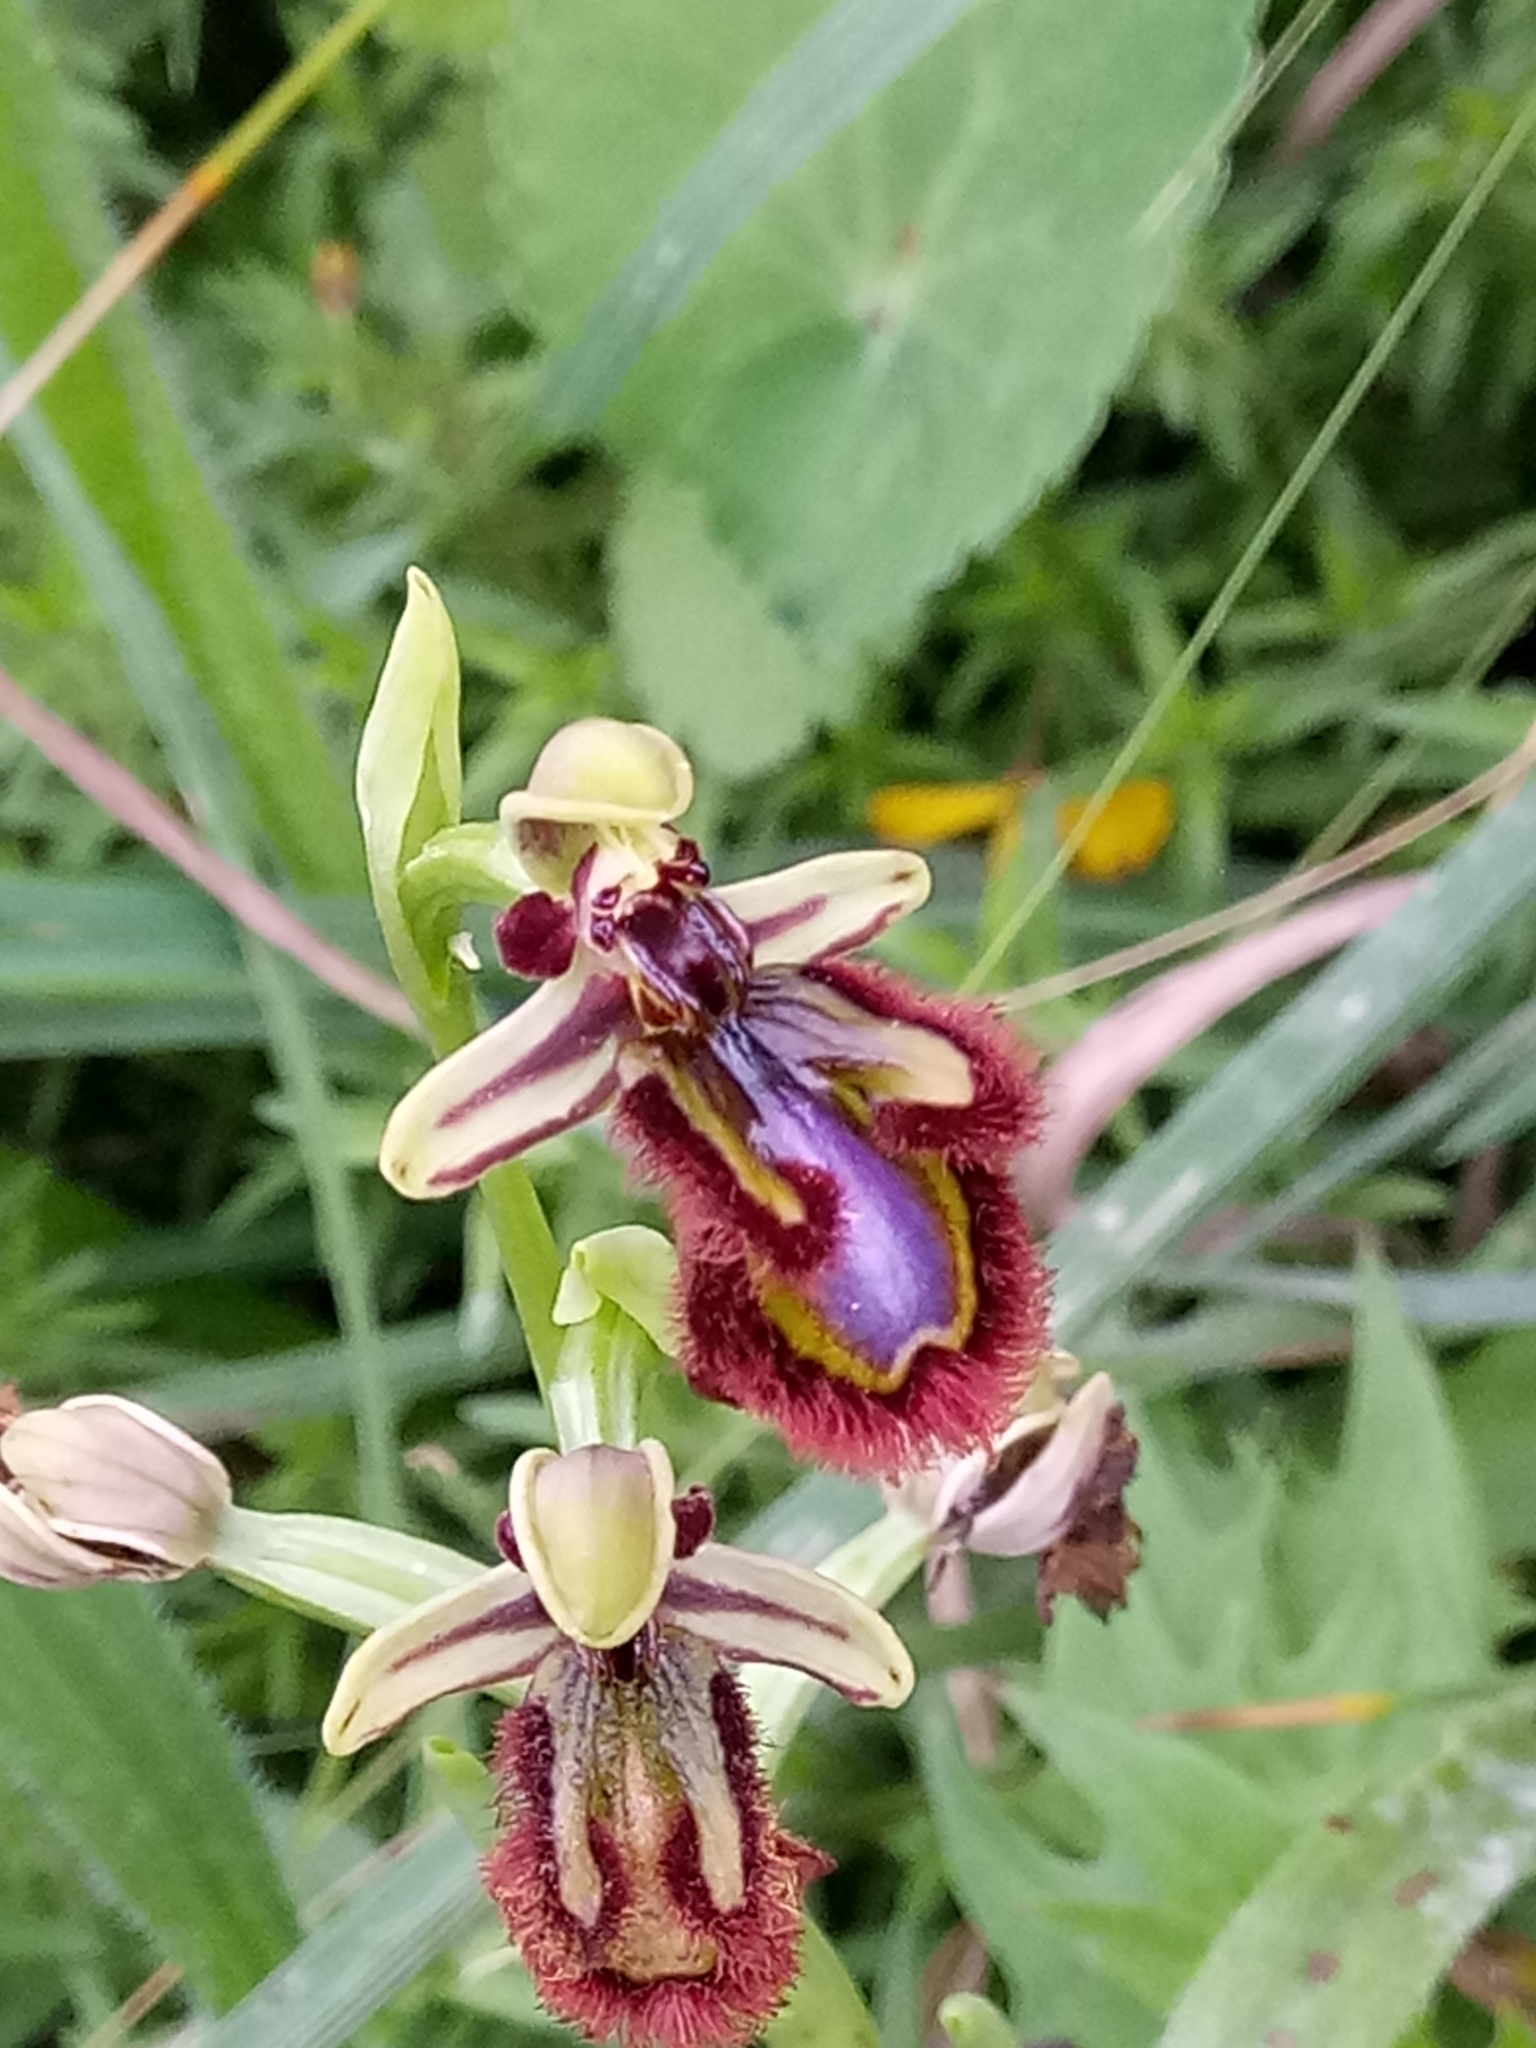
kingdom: Plantae
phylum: Tracheophyta
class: Liliopsida
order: Asparagales
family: Orchidaceae
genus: Ophrys
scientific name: Ophrys speculum
